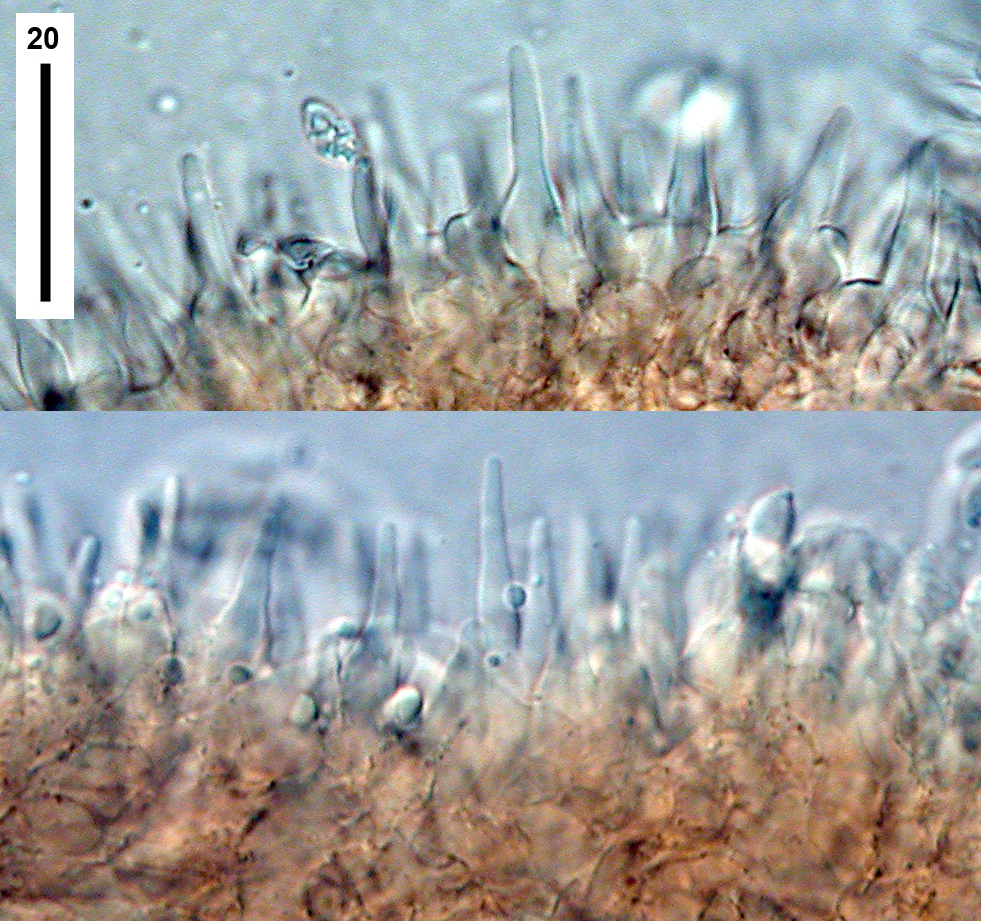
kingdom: Fungi
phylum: Basidiomycota
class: Agaricomycetes
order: Agaricales
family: Tricholomataceae
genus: Omphalina
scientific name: Omphalina wellingtonensis
